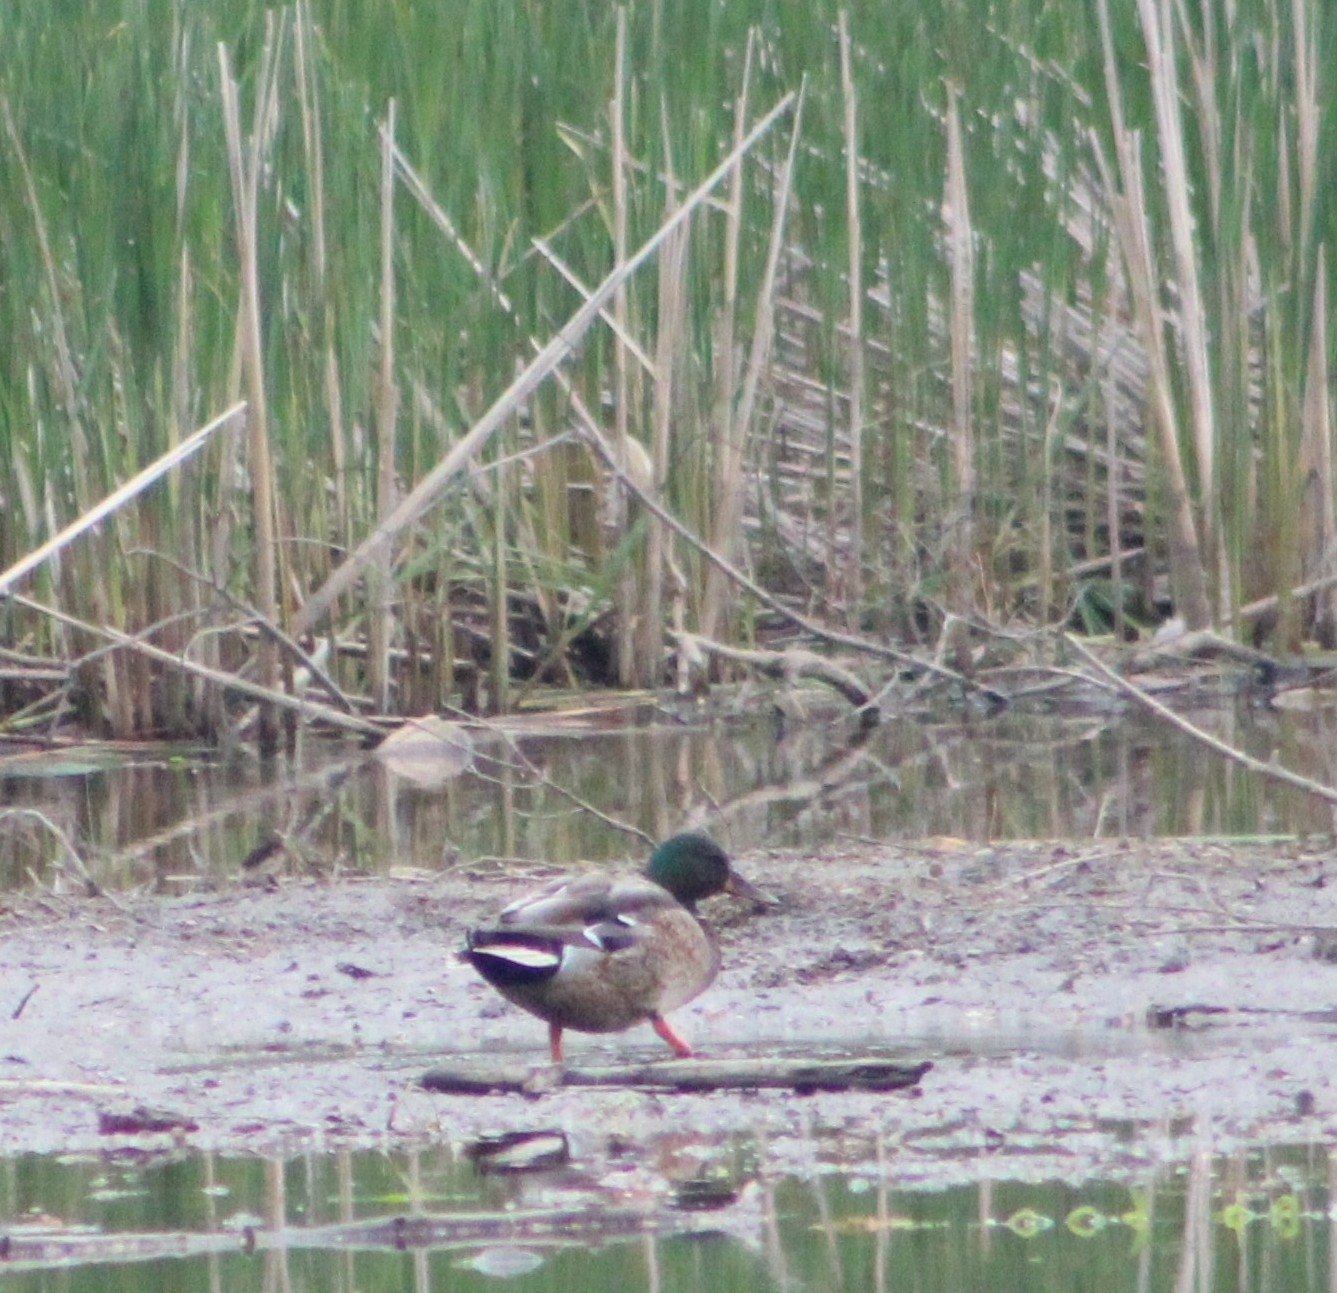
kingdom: Animalia
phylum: Chordata
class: Aves
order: Anseriformes
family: Anatidae
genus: Anas
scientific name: Anas platyrhynchos
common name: Mallard
